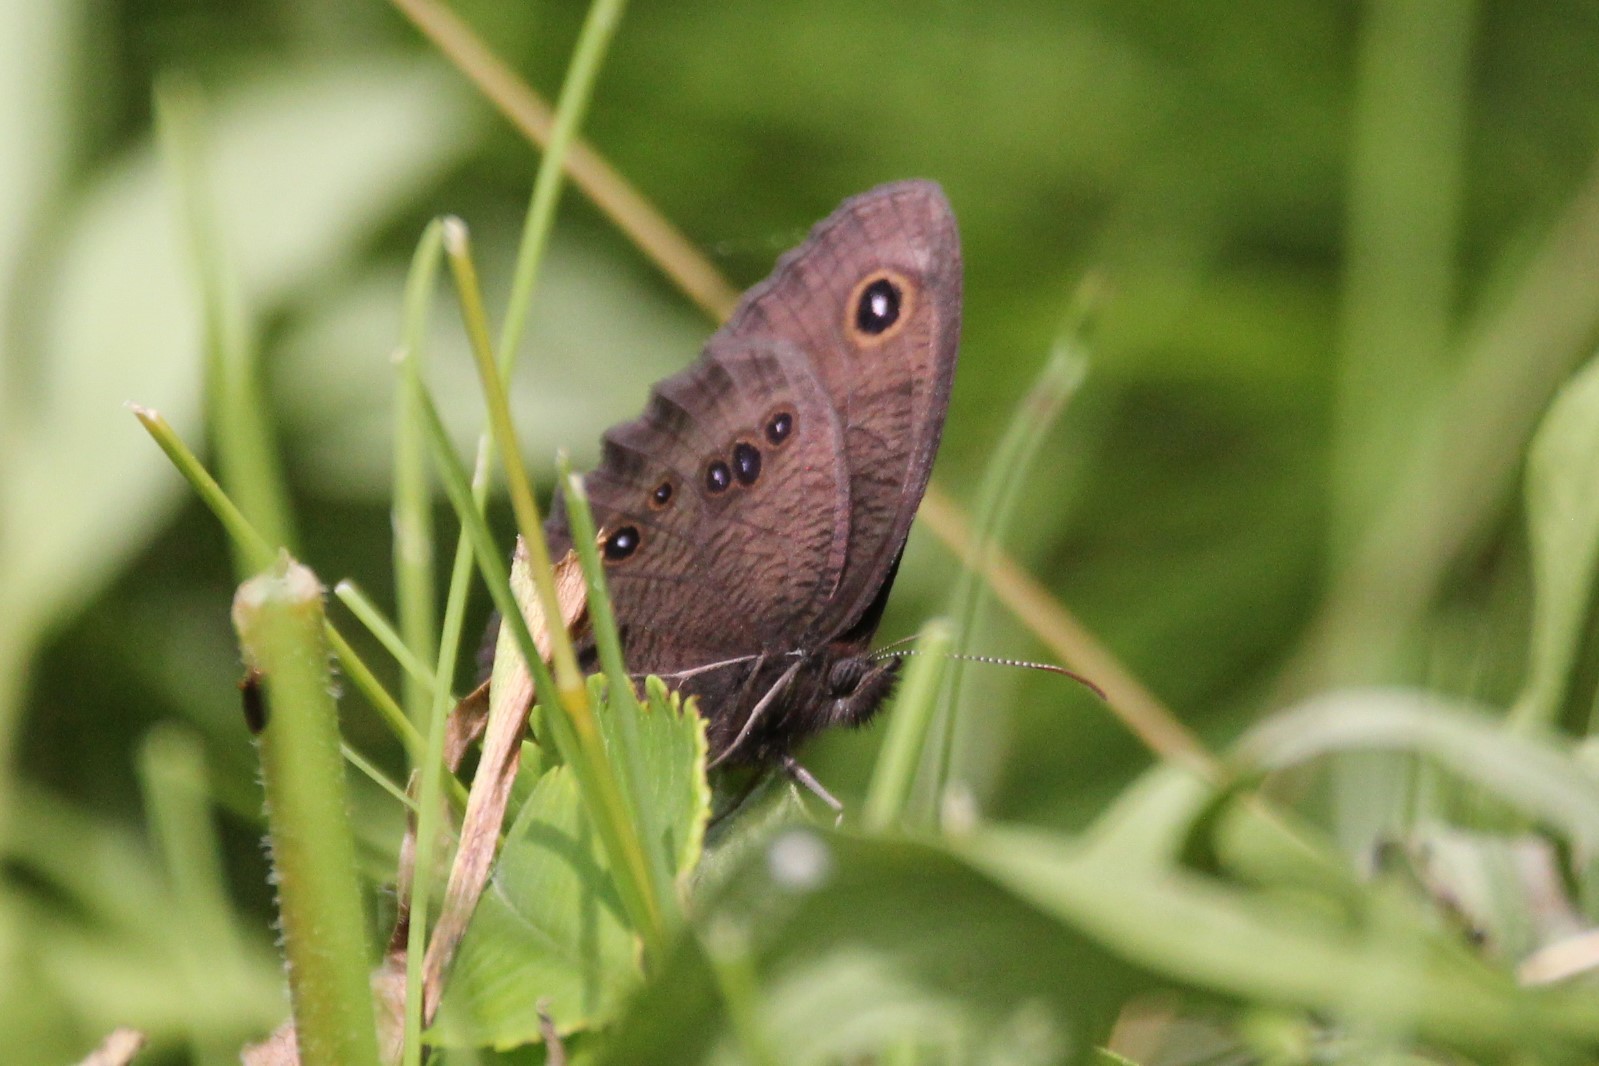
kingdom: Animalia
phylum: Arthropoda
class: Insecta
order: Lepidoptera
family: Nymphalidae
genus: Cercyonis
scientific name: Cercyonis pegala
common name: Common wood-nymph
